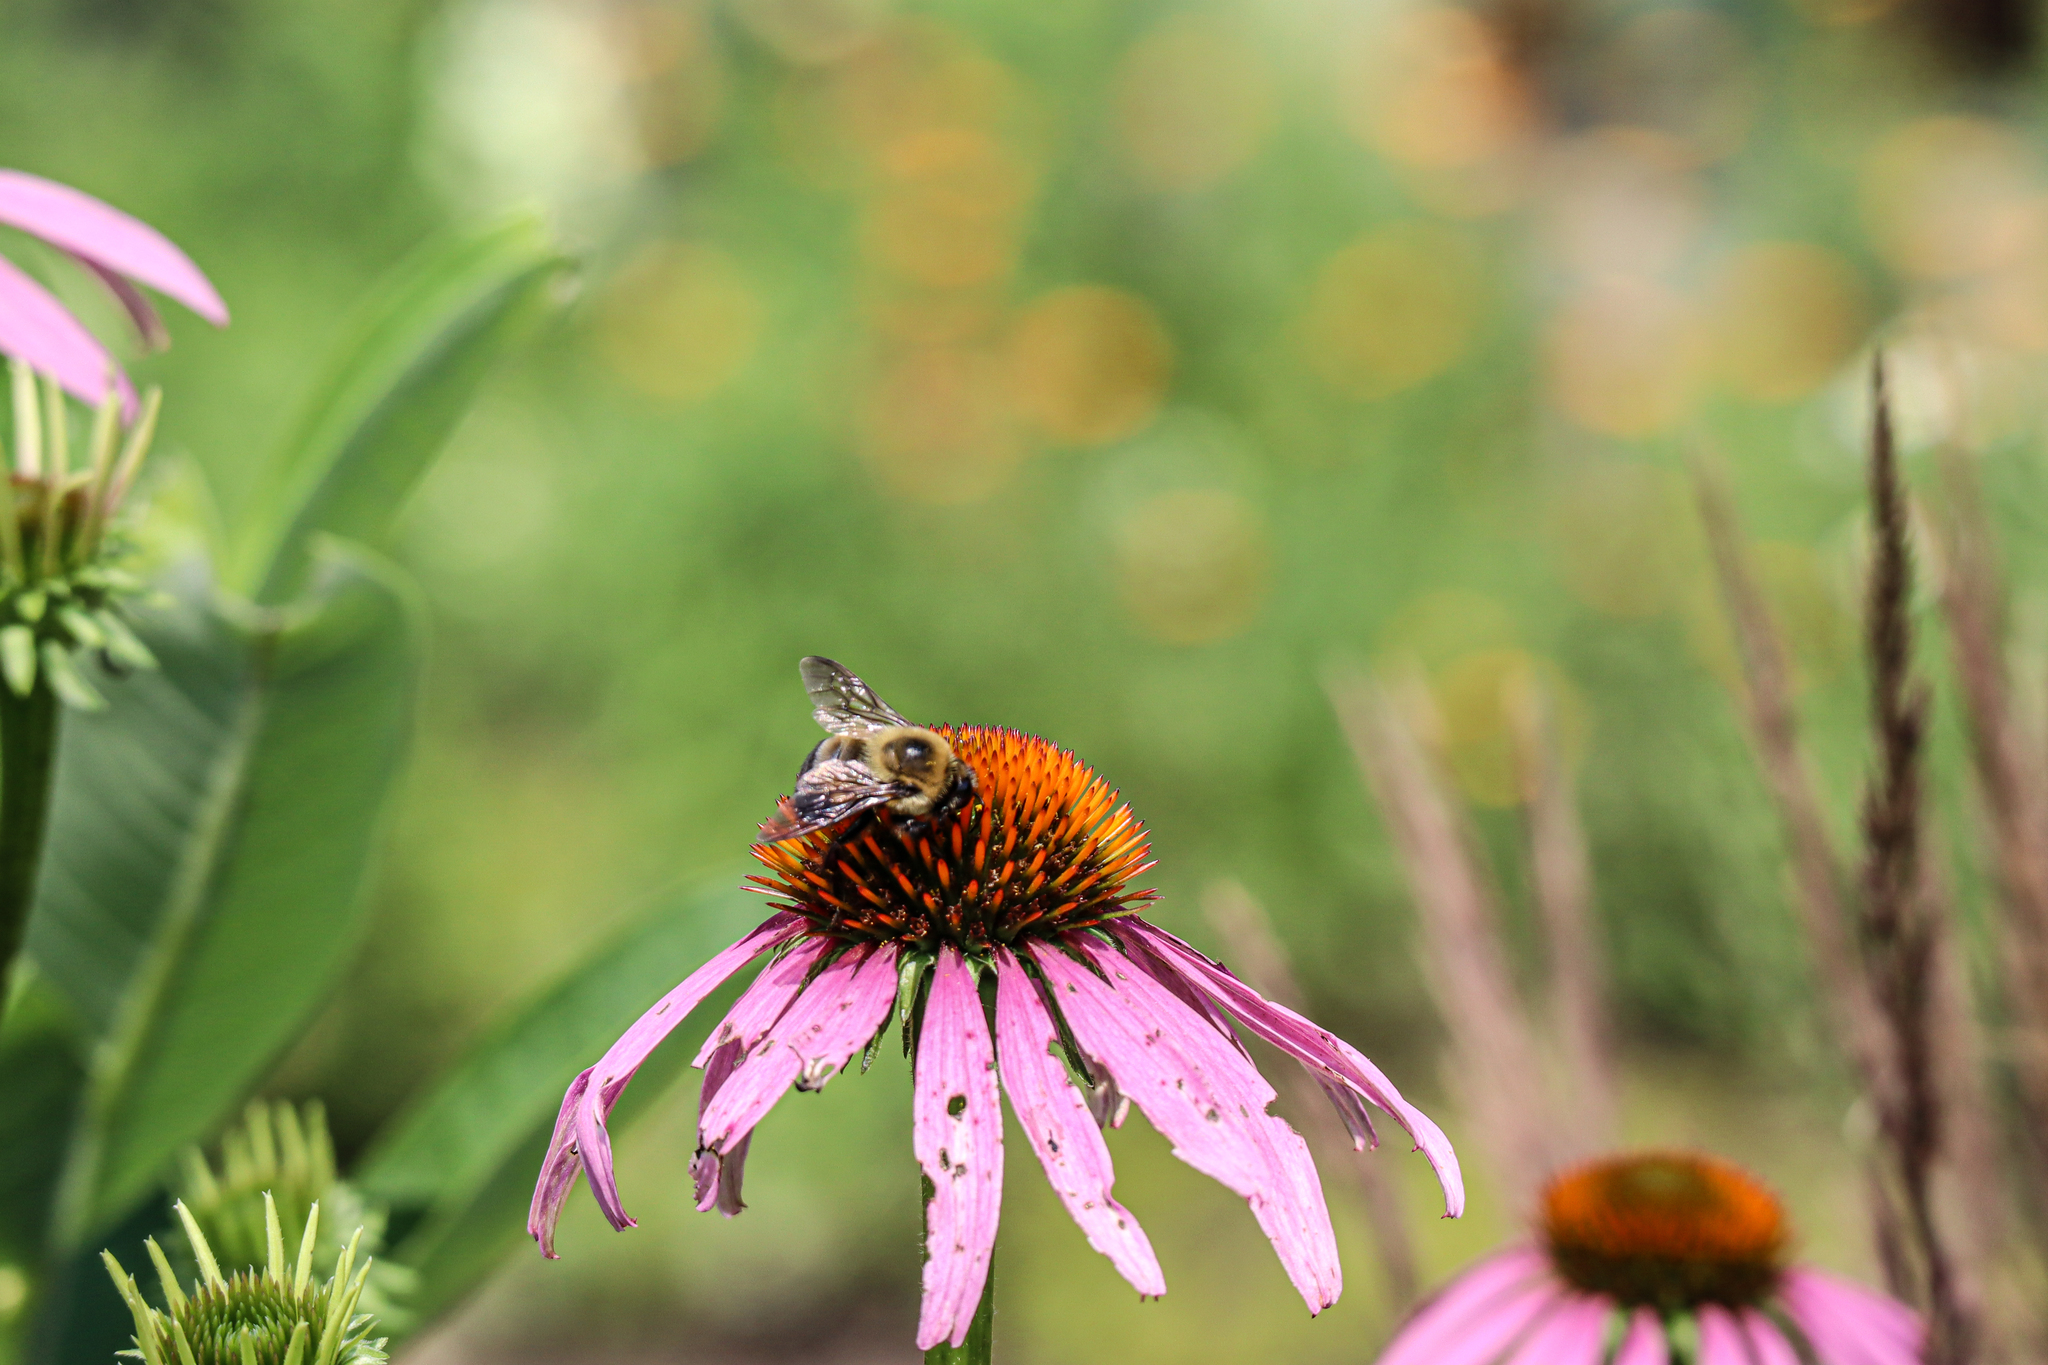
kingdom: Animalia
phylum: Arthropoda
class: Insecta
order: Hymenoptera
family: Apidae
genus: Bombus
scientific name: Bombus griseocollis
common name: Brown-belted bumble bee
